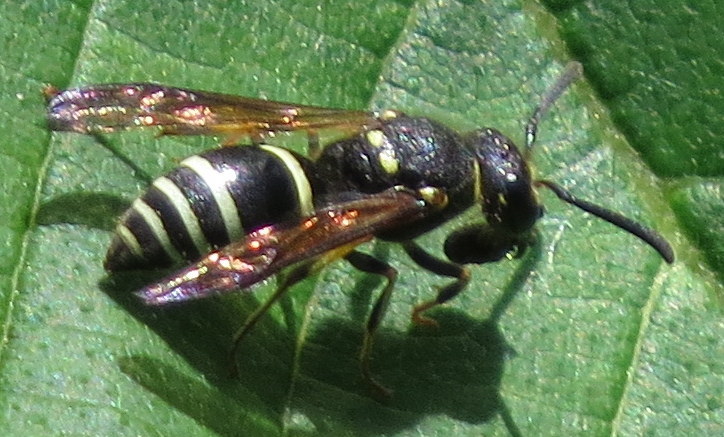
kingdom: Animalia
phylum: Arthropoda
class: Insecta
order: Hymenoptera
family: Vespidae
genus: Ancistrocerus
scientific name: Ancistrocerus albophaleratus
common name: White-banded potter wasp
